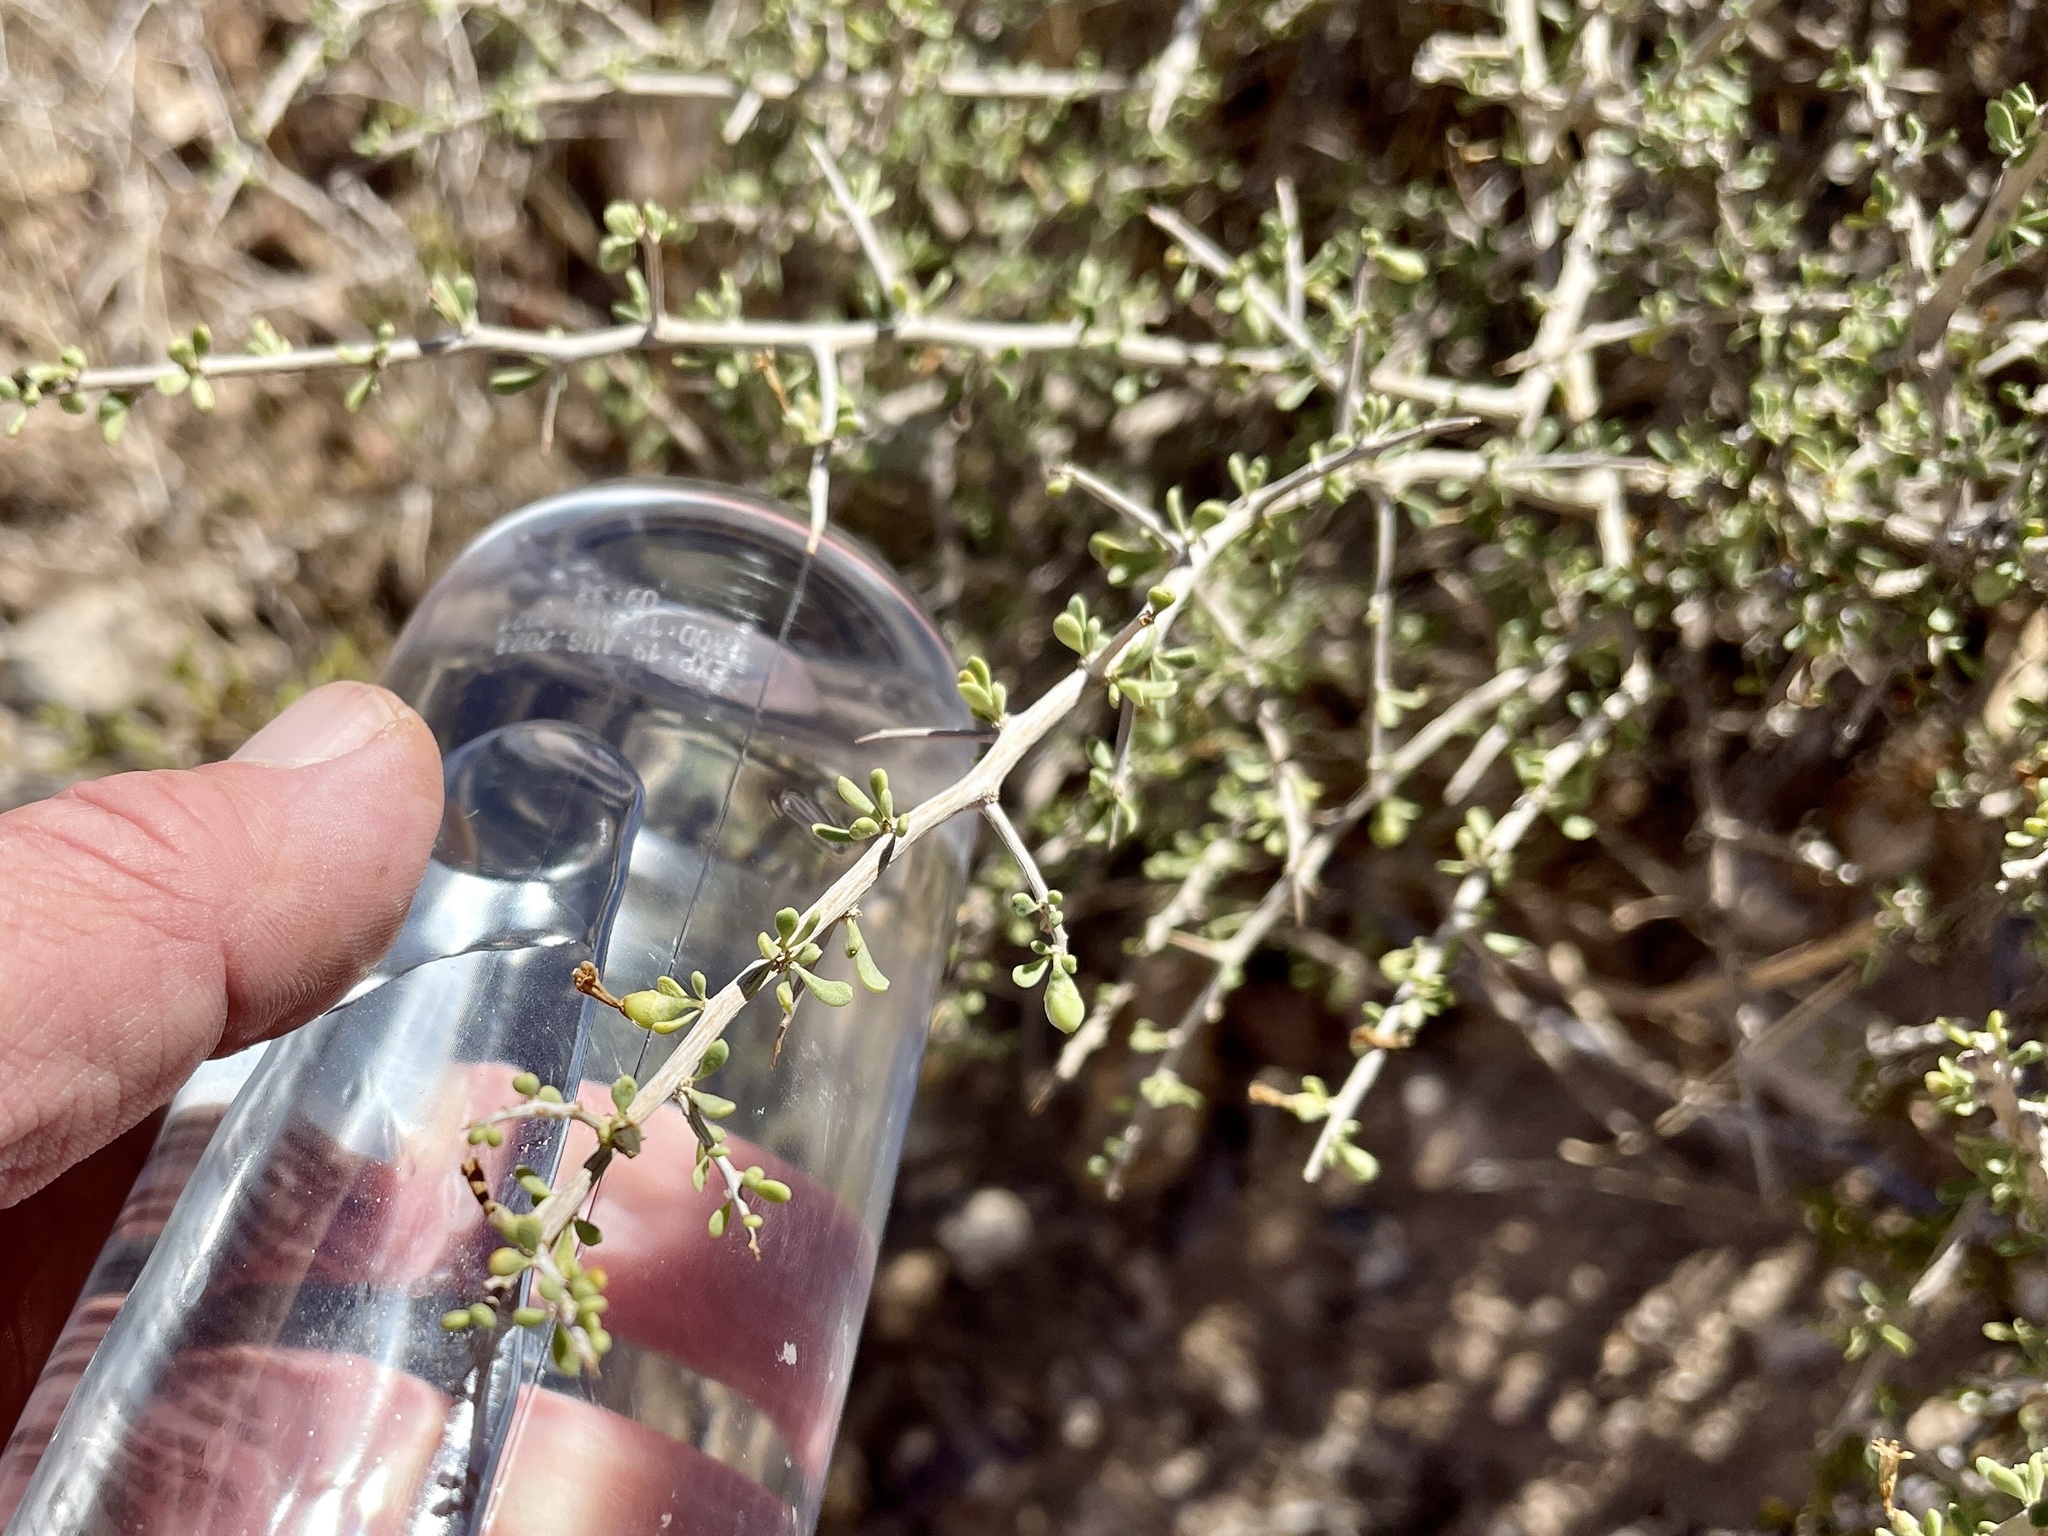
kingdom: Plantae
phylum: Tracheophyta
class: Magnoliopsida
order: Solanales
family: Solanaceae
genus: Lycium
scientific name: Lycium andersonii
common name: Water-jacket
